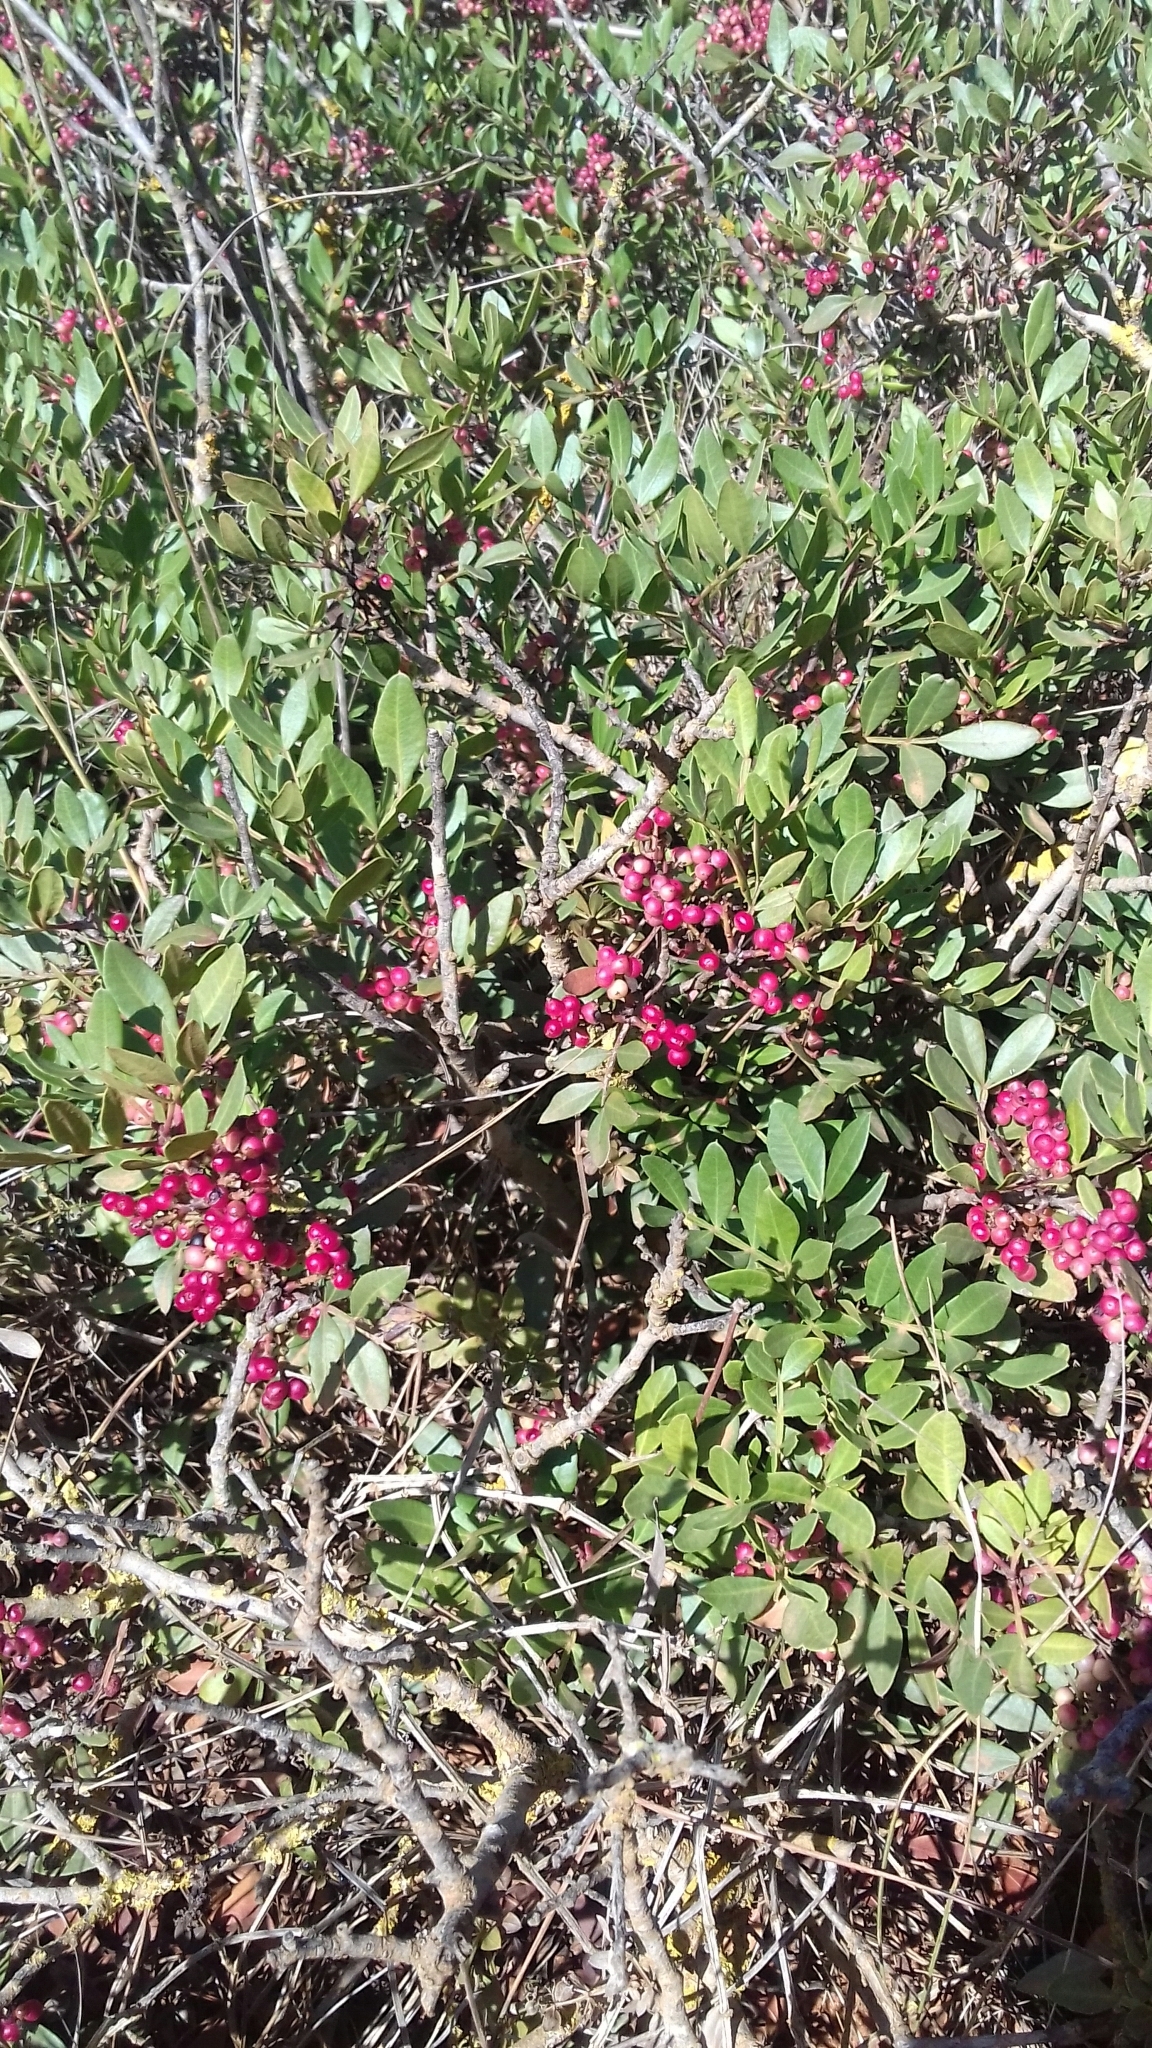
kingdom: Plantae
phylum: Tracheophyta
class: Magnoliopsida
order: Sapindales
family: Anacardiaceae
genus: Pistacia
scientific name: Pistacia lentiscus
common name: Lentisk
